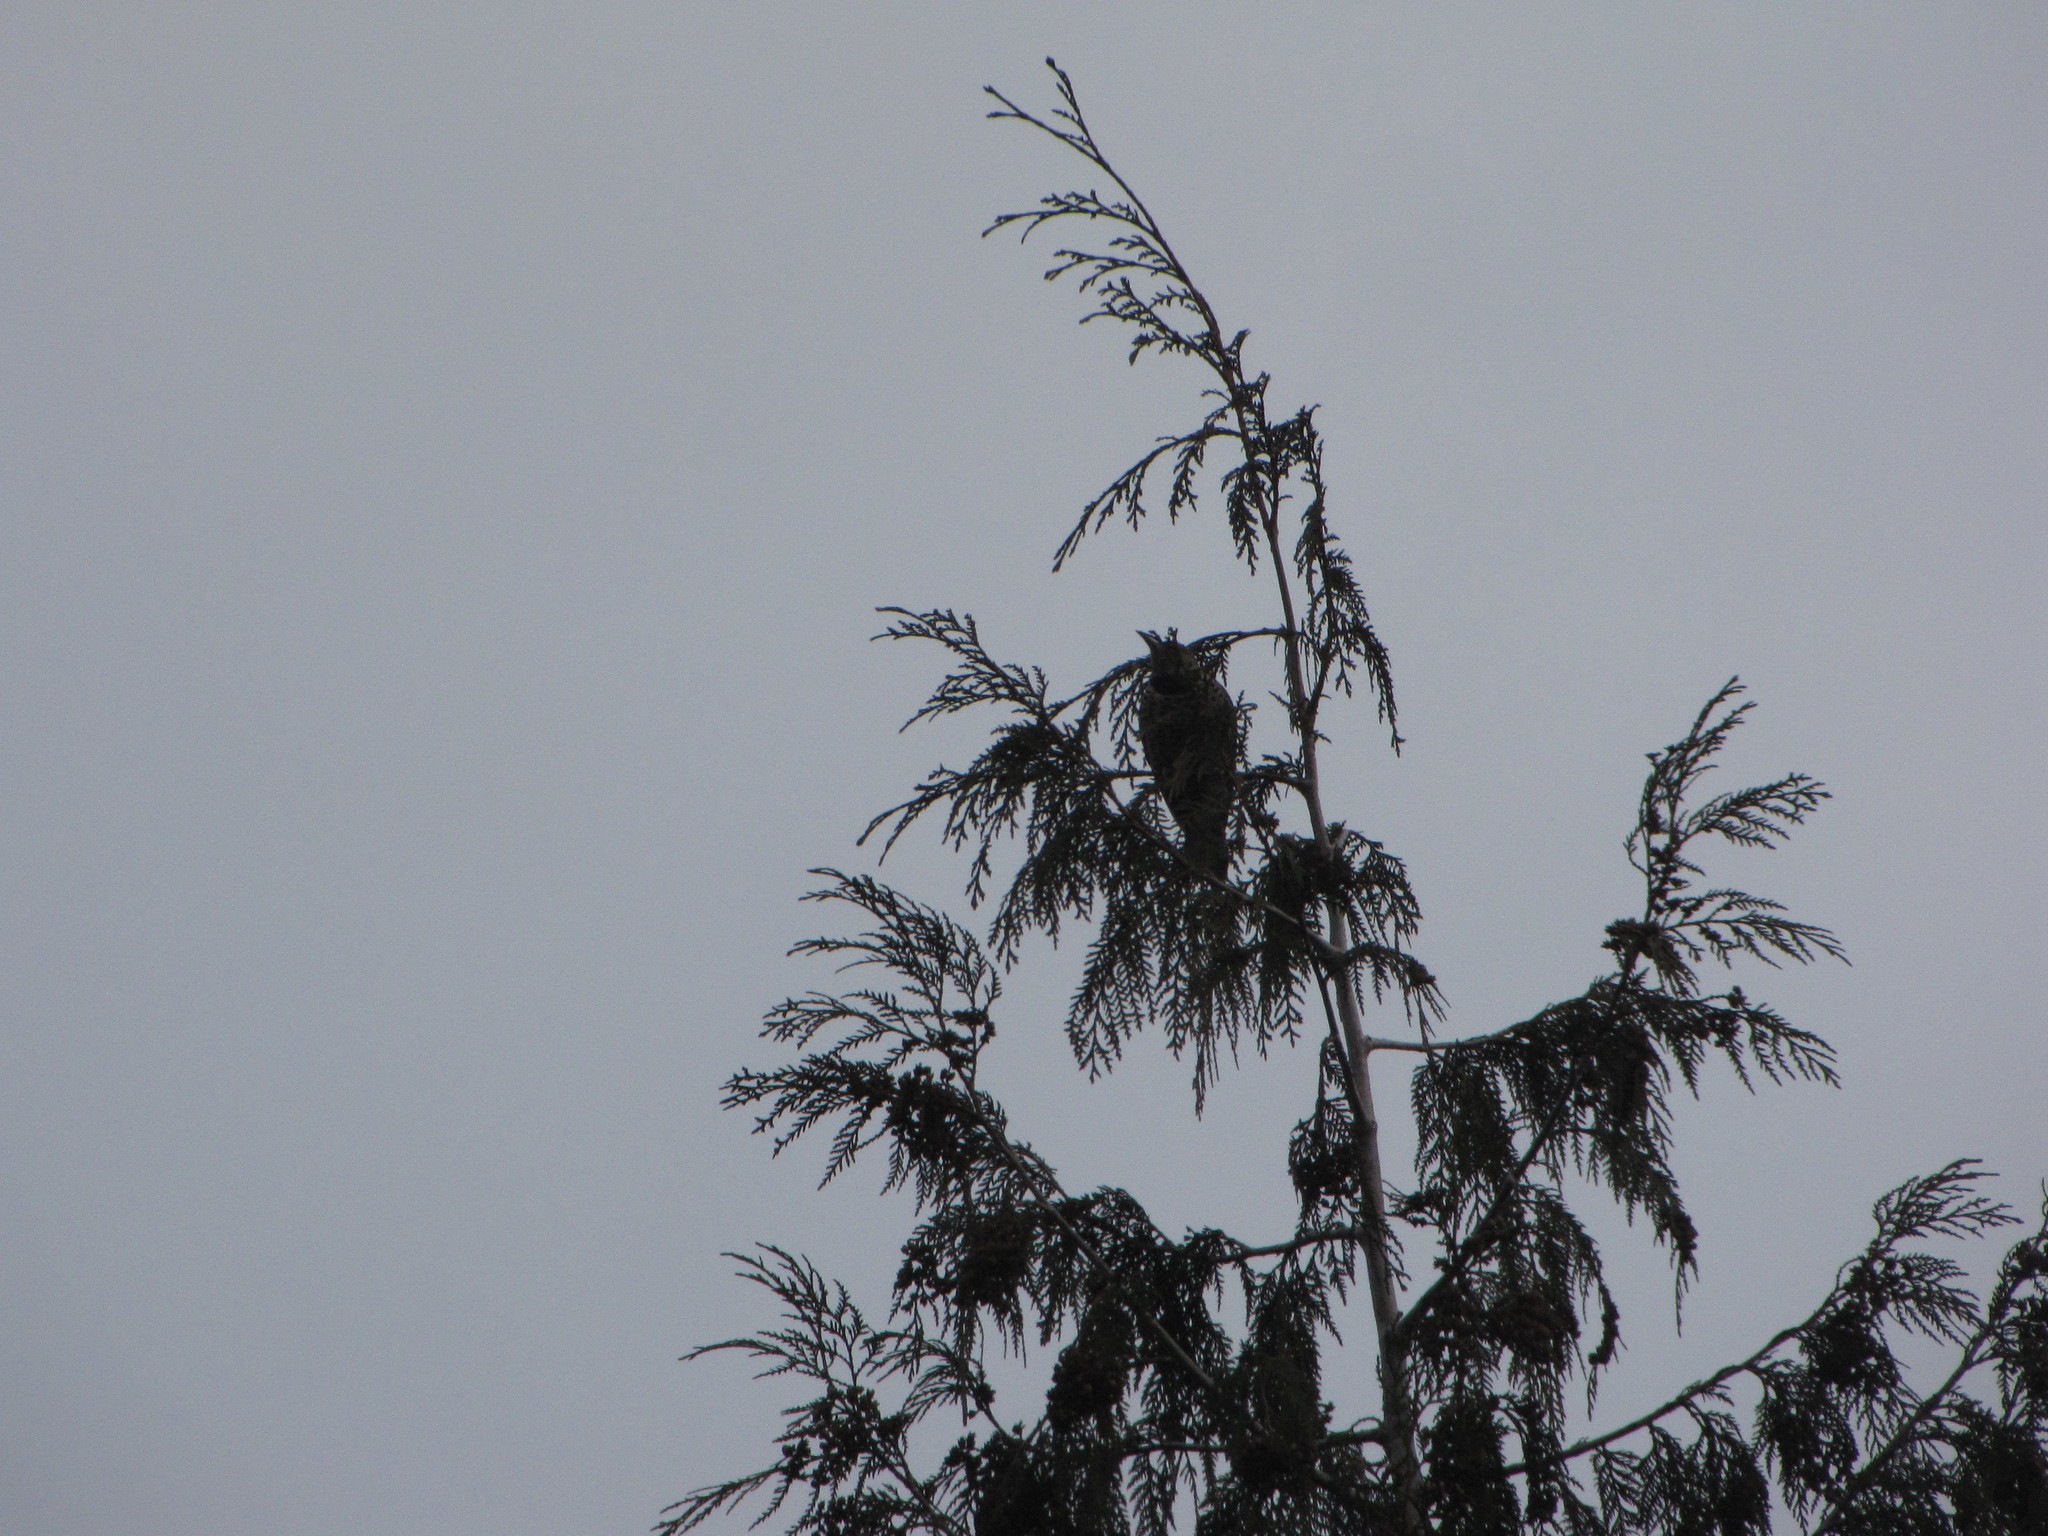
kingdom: Animalia
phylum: Chordata
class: Aves
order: Piciformes
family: Picidae
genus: Colaptes
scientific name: Colaptes auratus
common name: Northern flicker
